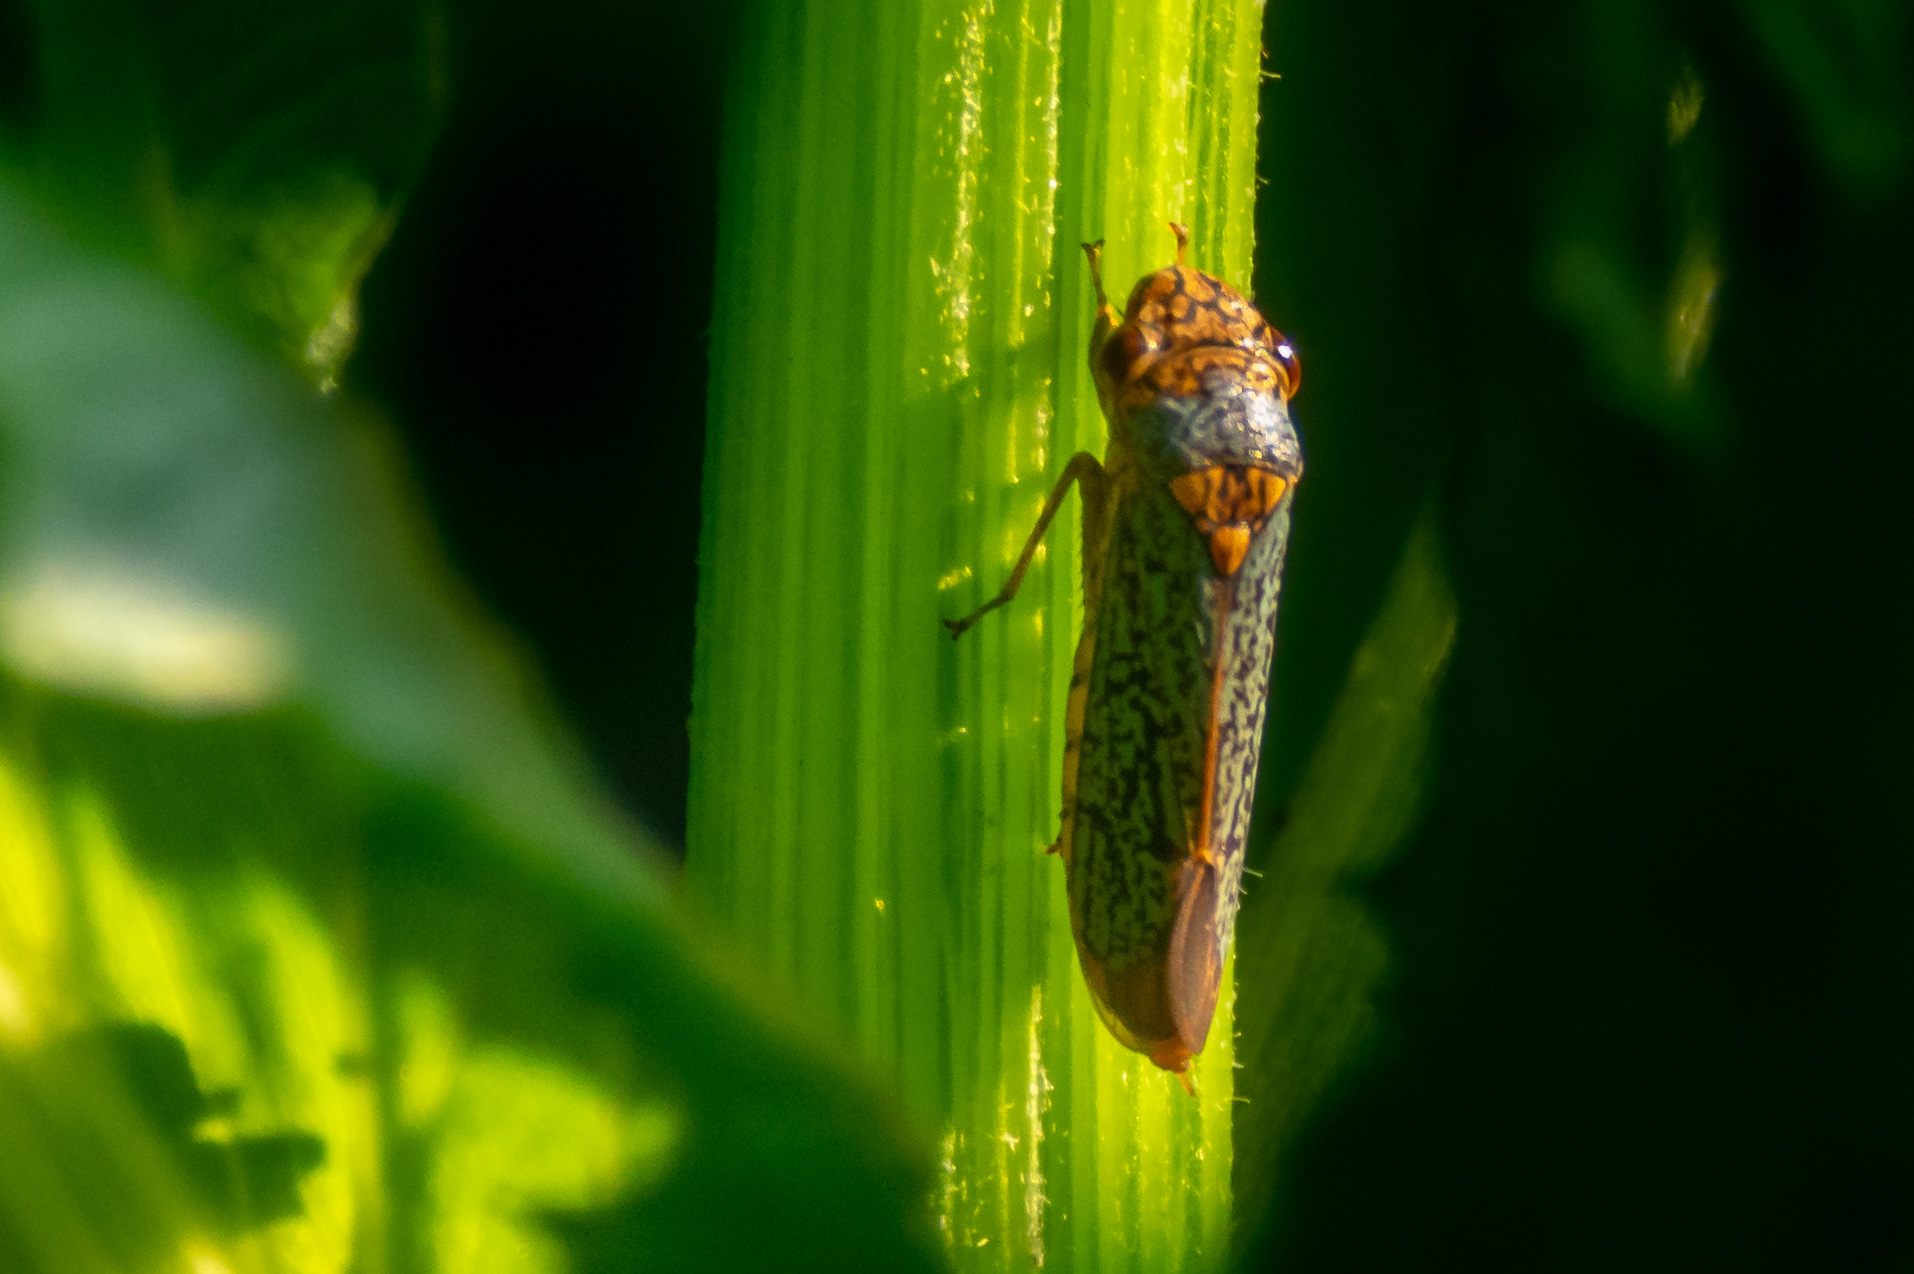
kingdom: Animalia
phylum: Arthropoda
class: Insecta
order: Hemiptera
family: Cicadellidae
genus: Oncometopia
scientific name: Oncometopia orbona
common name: Broad-headed sharpshooter
